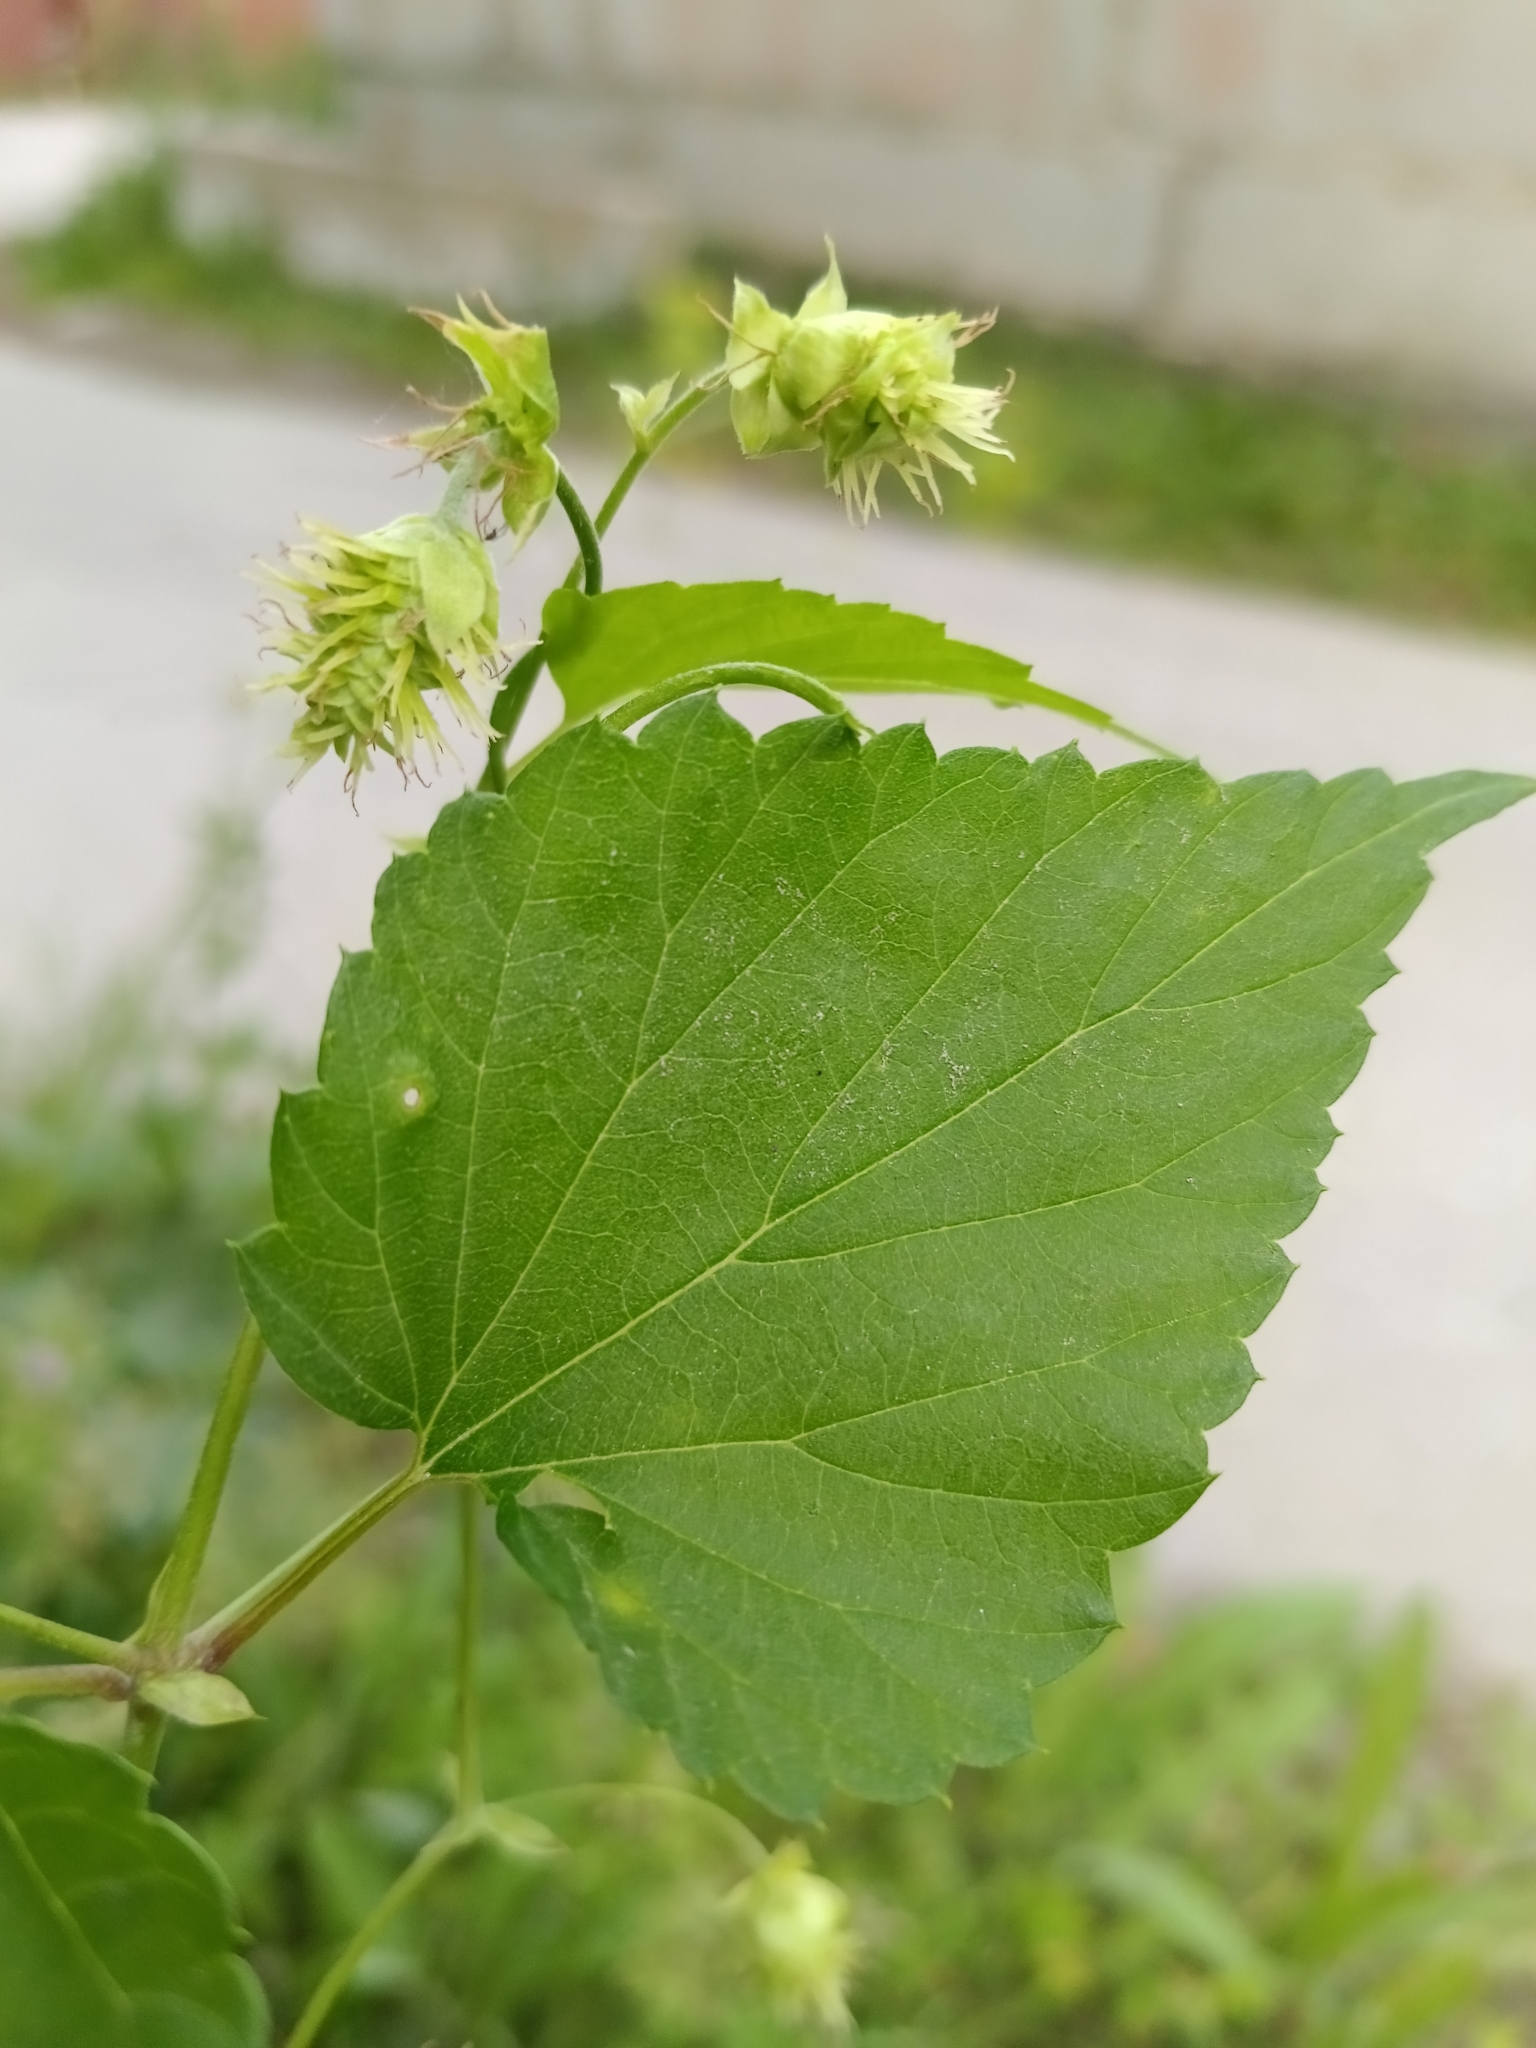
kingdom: Plantae
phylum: Tracheophyta
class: Magnoliopsida
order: Rosales
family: Cannabaceae
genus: Humulus
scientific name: Humulus lupulus
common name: Hop
